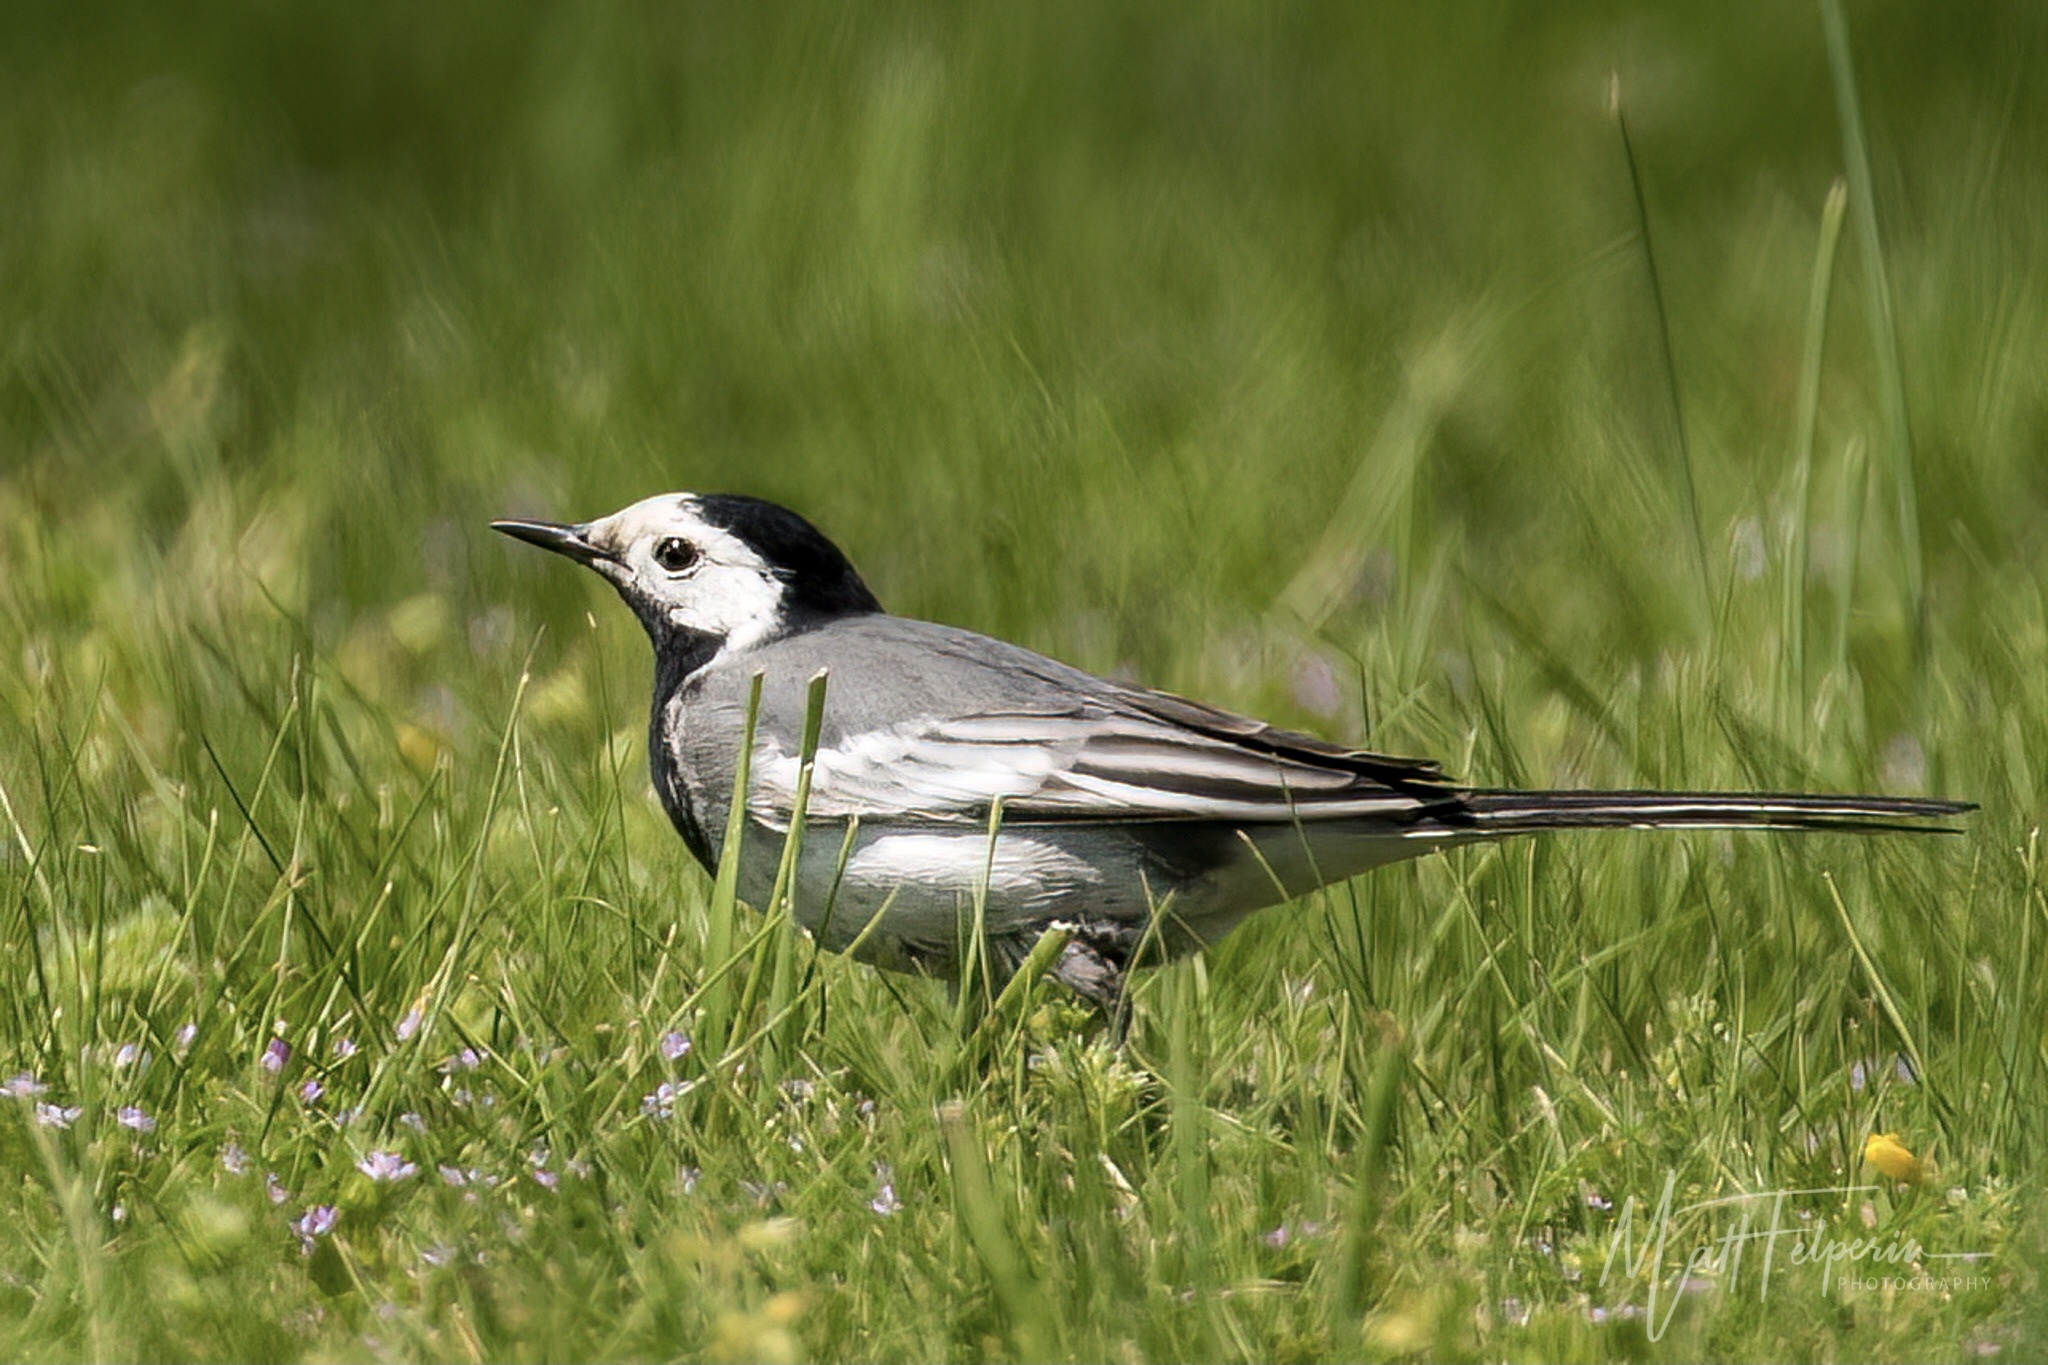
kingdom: Animalia
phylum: Chordata
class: Aves
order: Passeriformes
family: Motacillidae
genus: Motacilla
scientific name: Motacilla alba
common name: White wagtail
